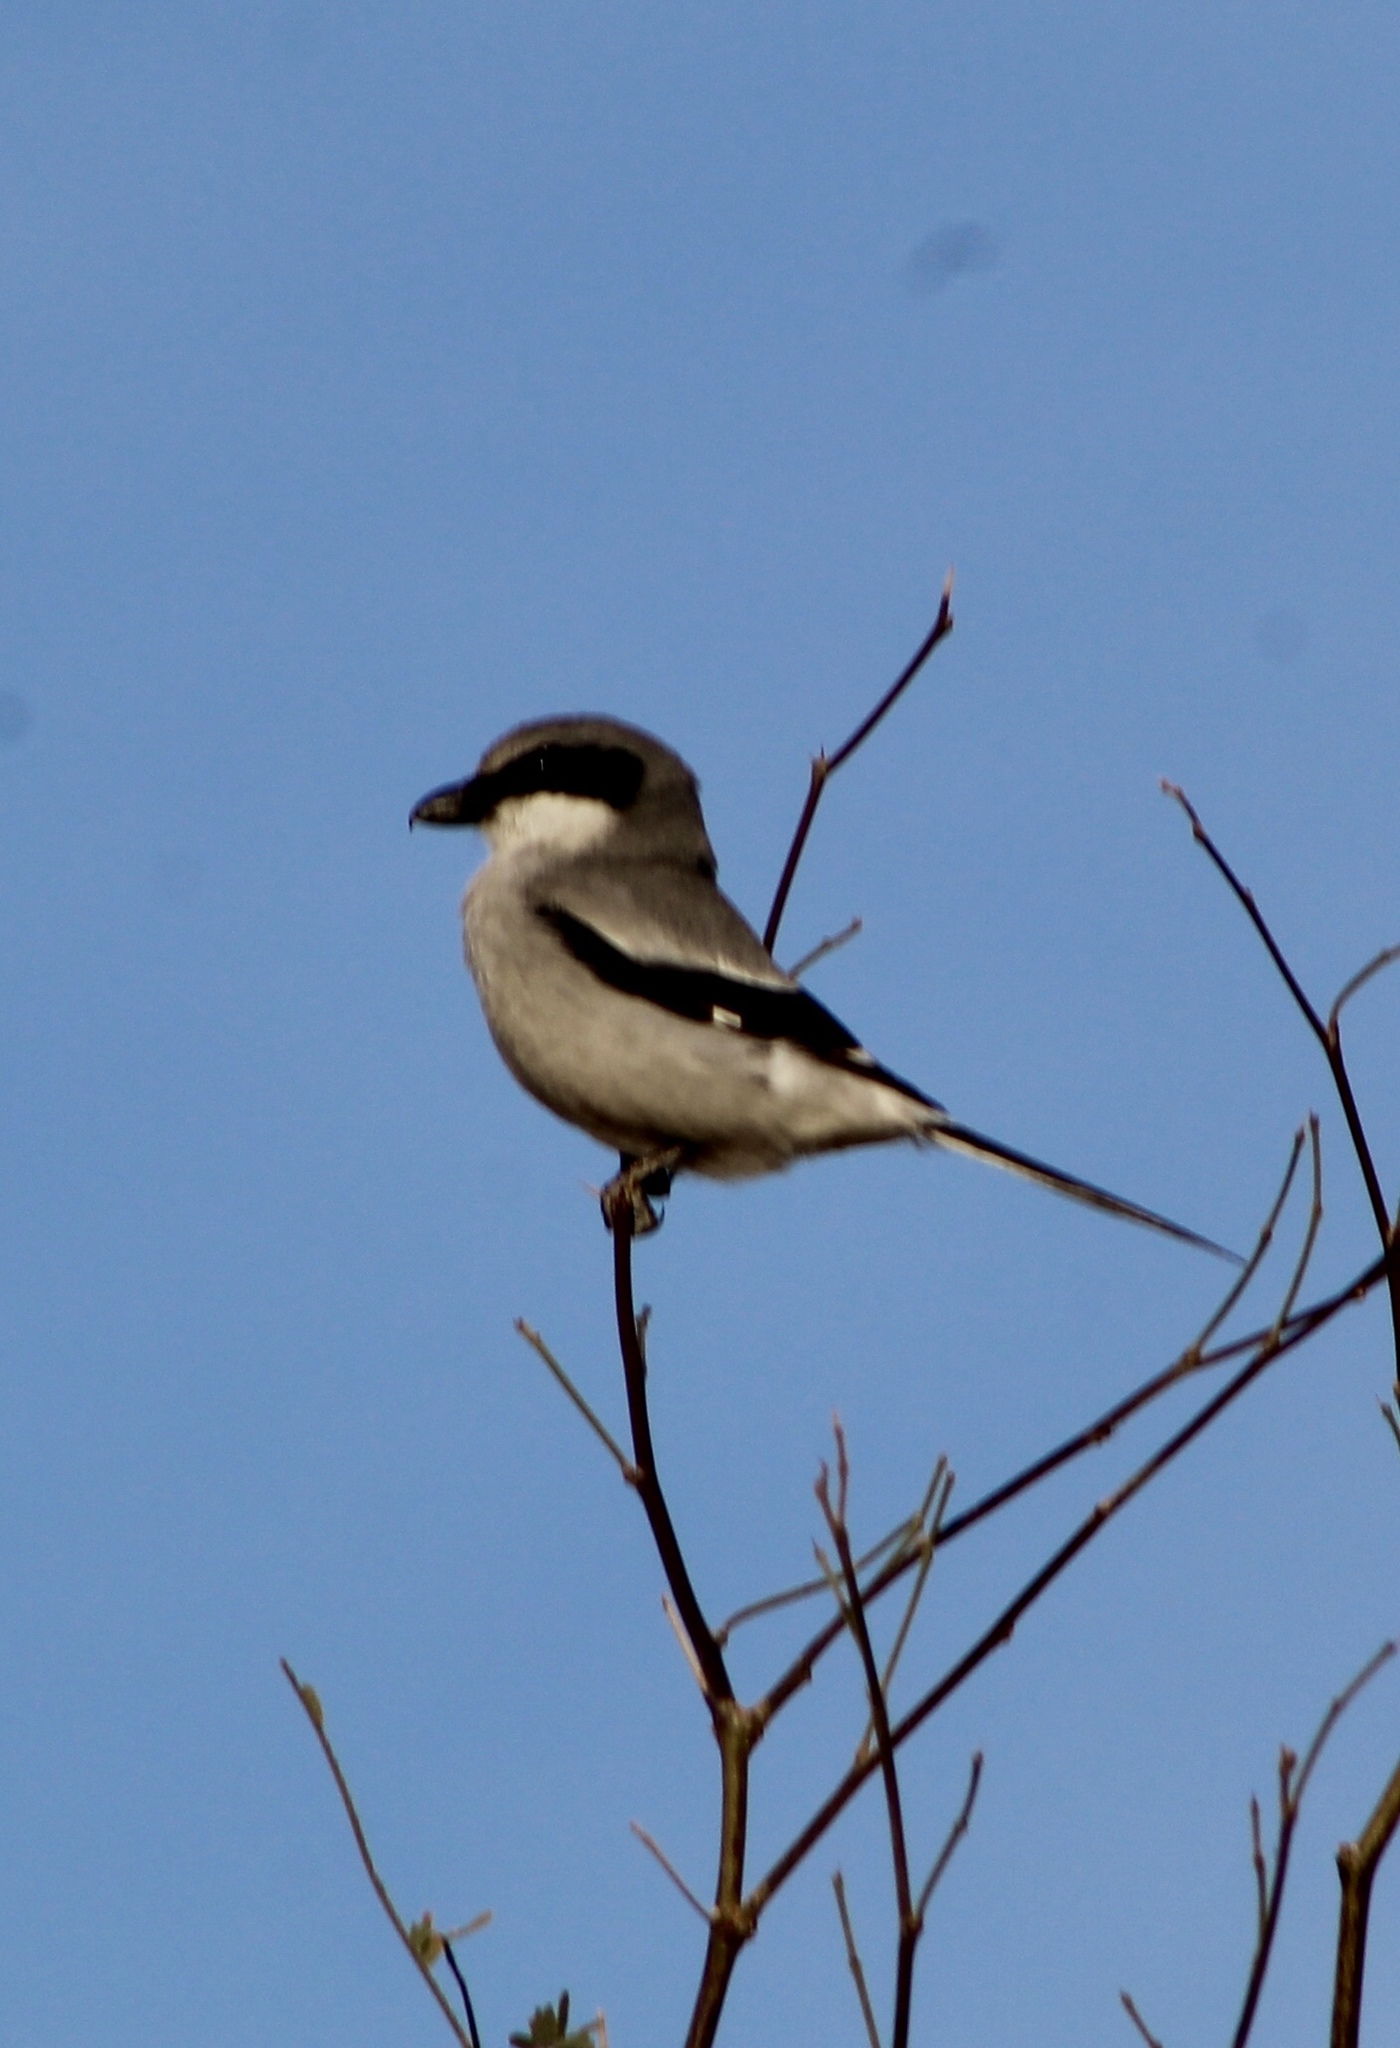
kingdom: Animalia
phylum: Chordata
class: Aves
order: Passeriformes
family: Laniidae
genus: Lanius
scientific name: Lanius ludovicianus
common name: Loggerhead shrike
